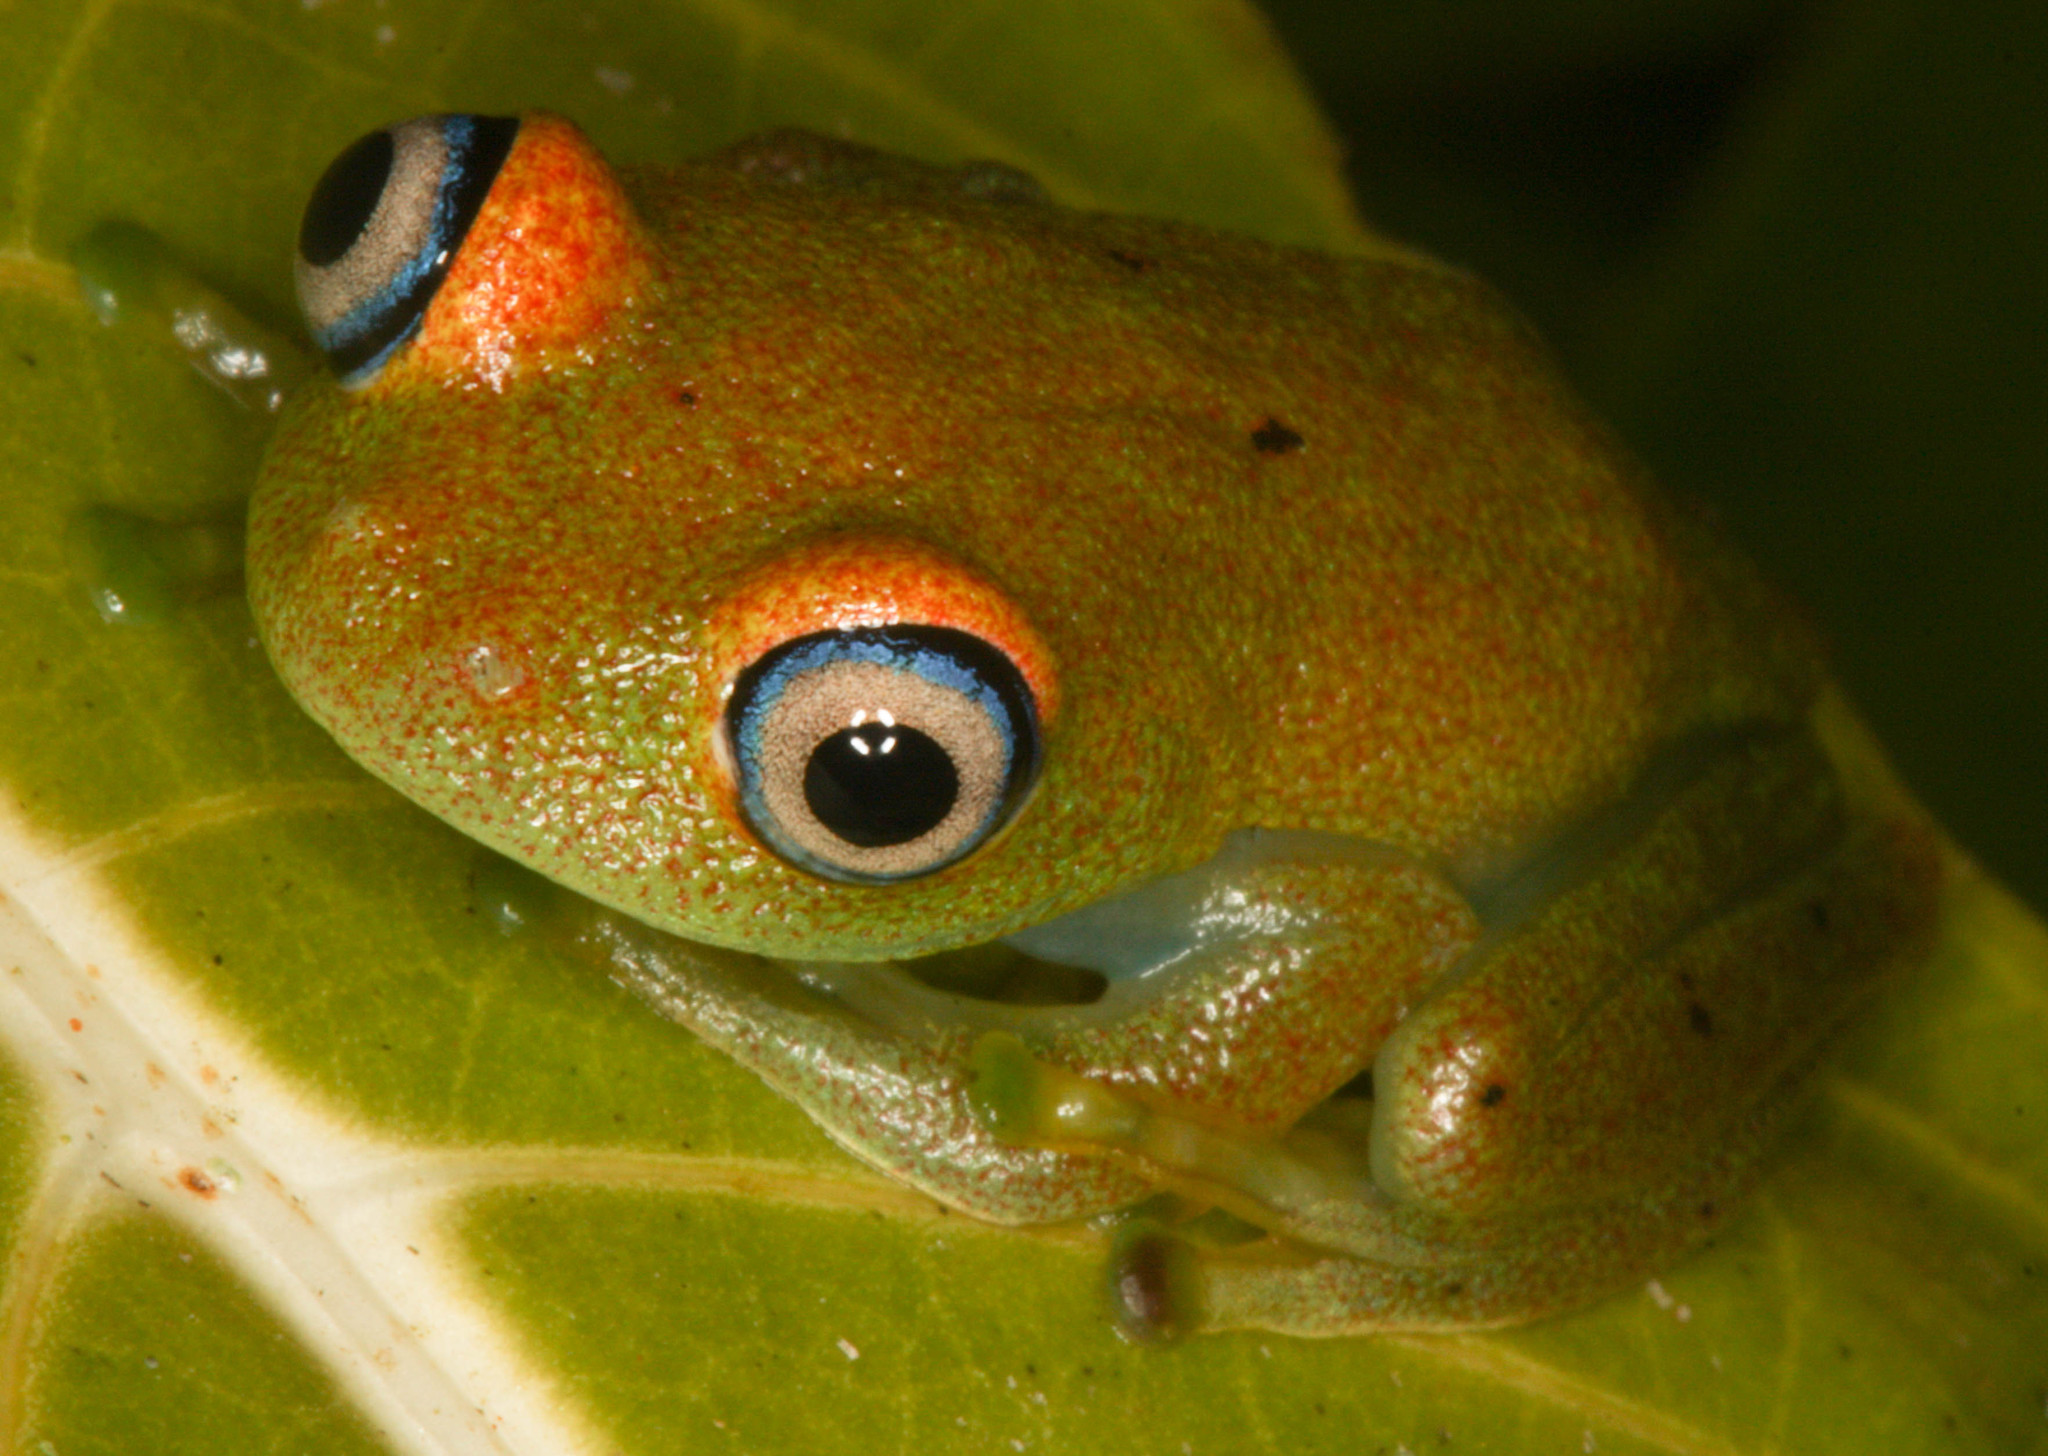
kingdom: Animalia
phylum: Chordata
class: Amphibia
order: Anura
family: Mantellidae
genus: Boophis
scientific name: Boophis viridis
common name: Green bright-eyed frog
